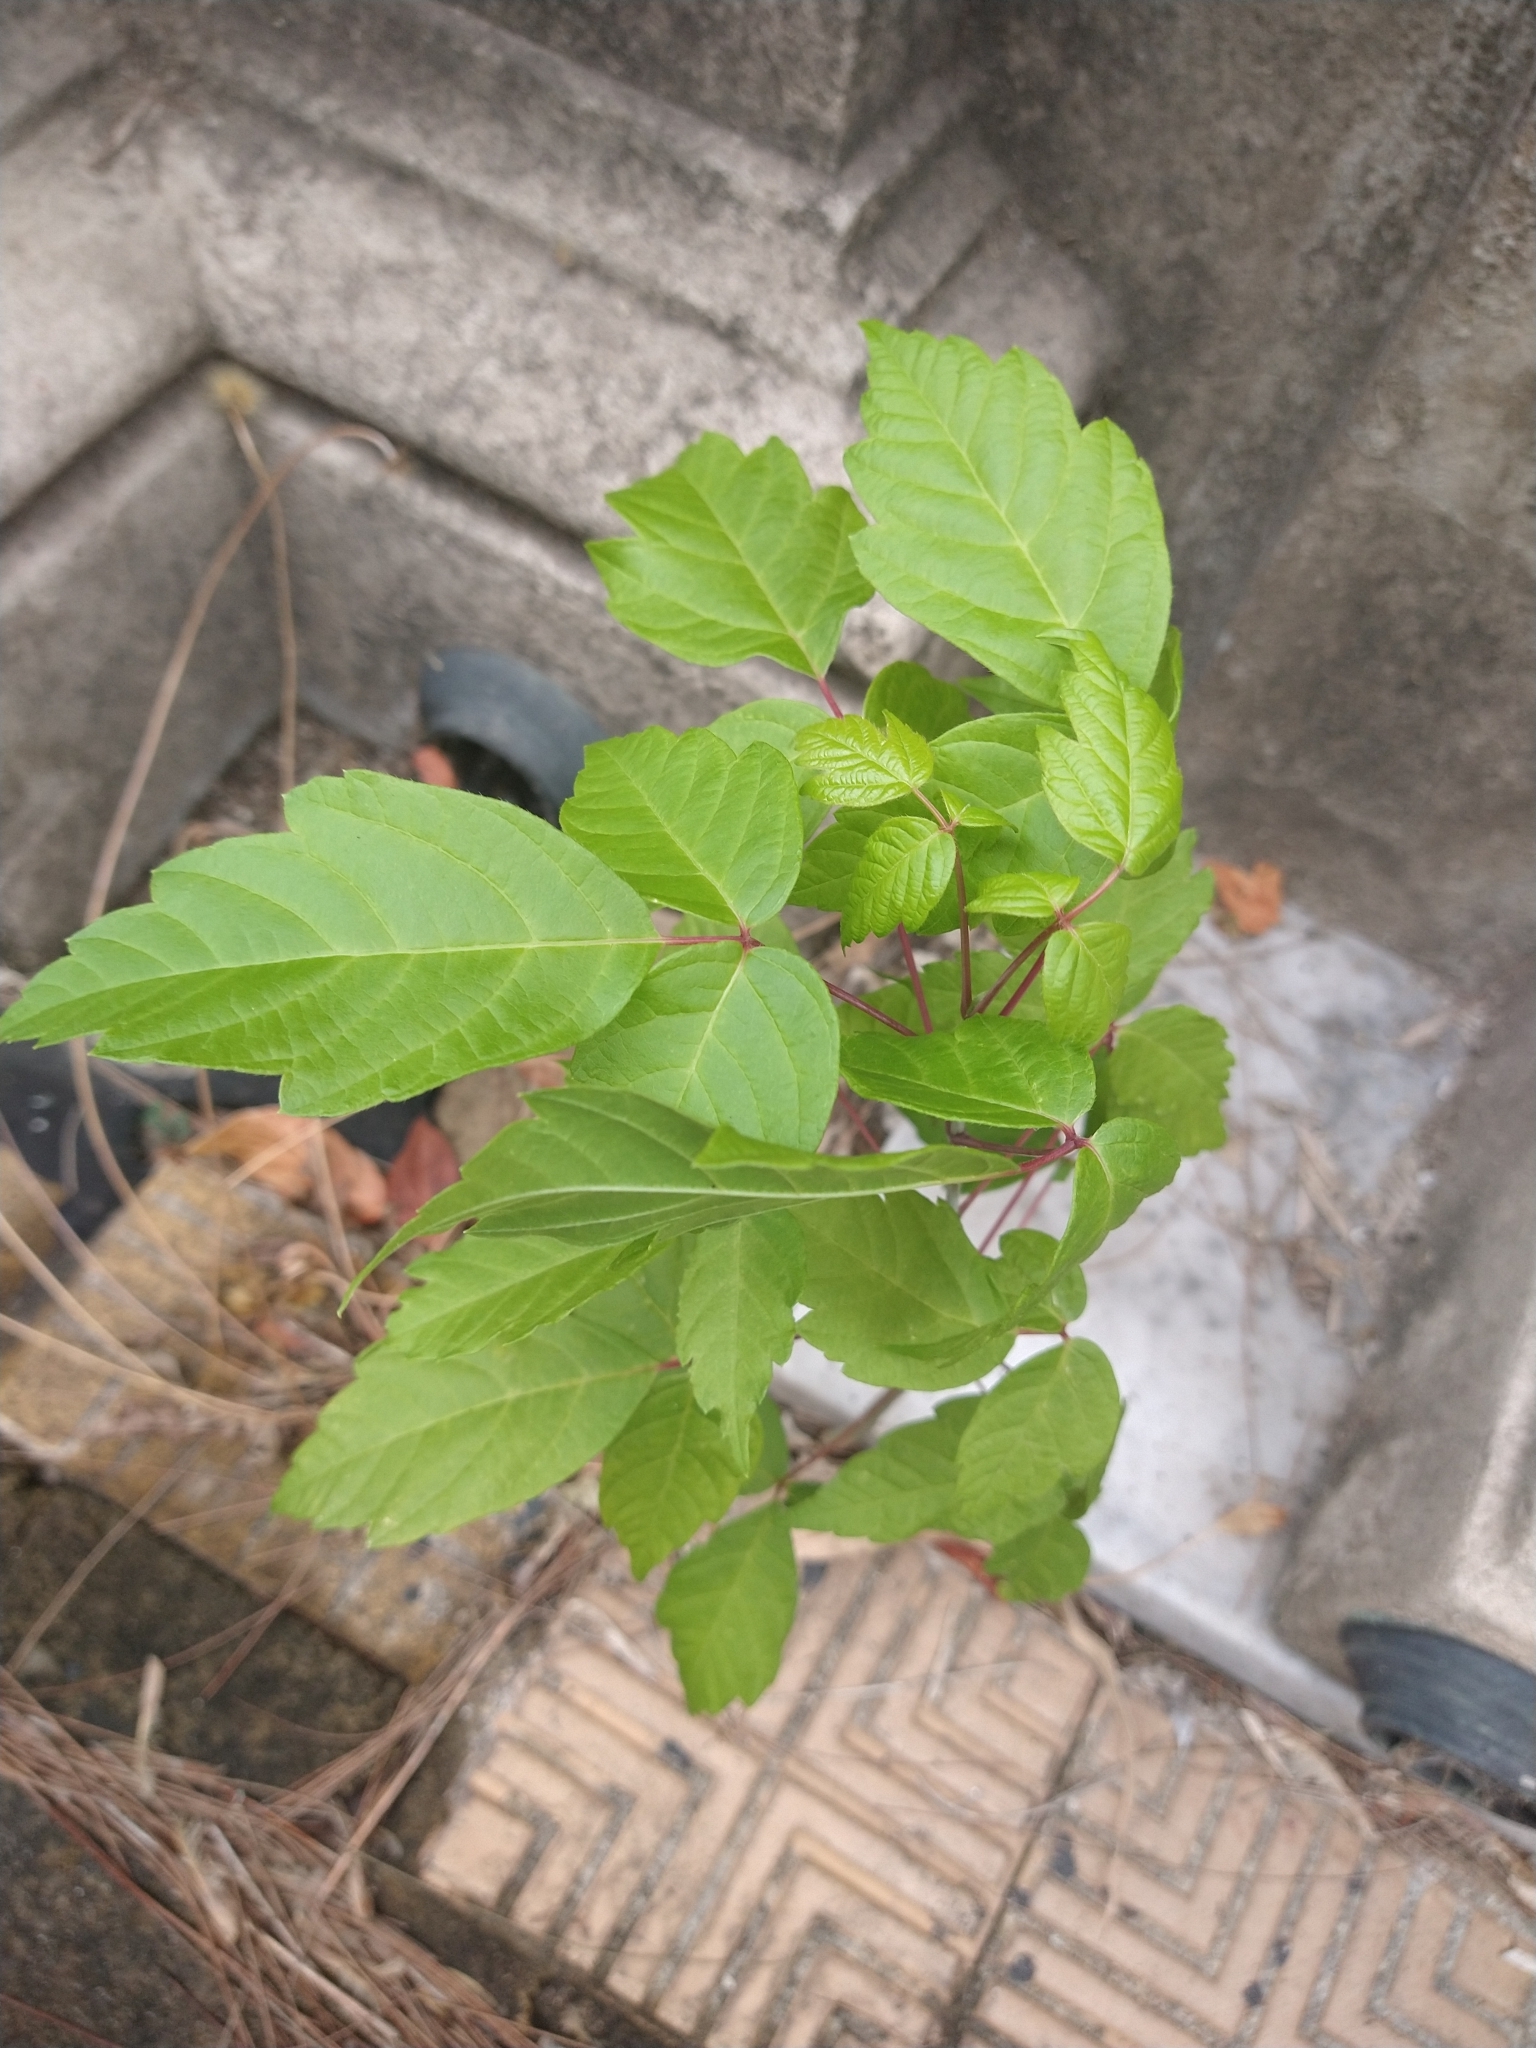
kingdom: Plantae
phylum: Tracheophyta
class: Magnoliopsida
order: Sapindales
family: Sapindaceae
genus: Acer
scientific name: Acer negundo
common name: Ashleaf maple
